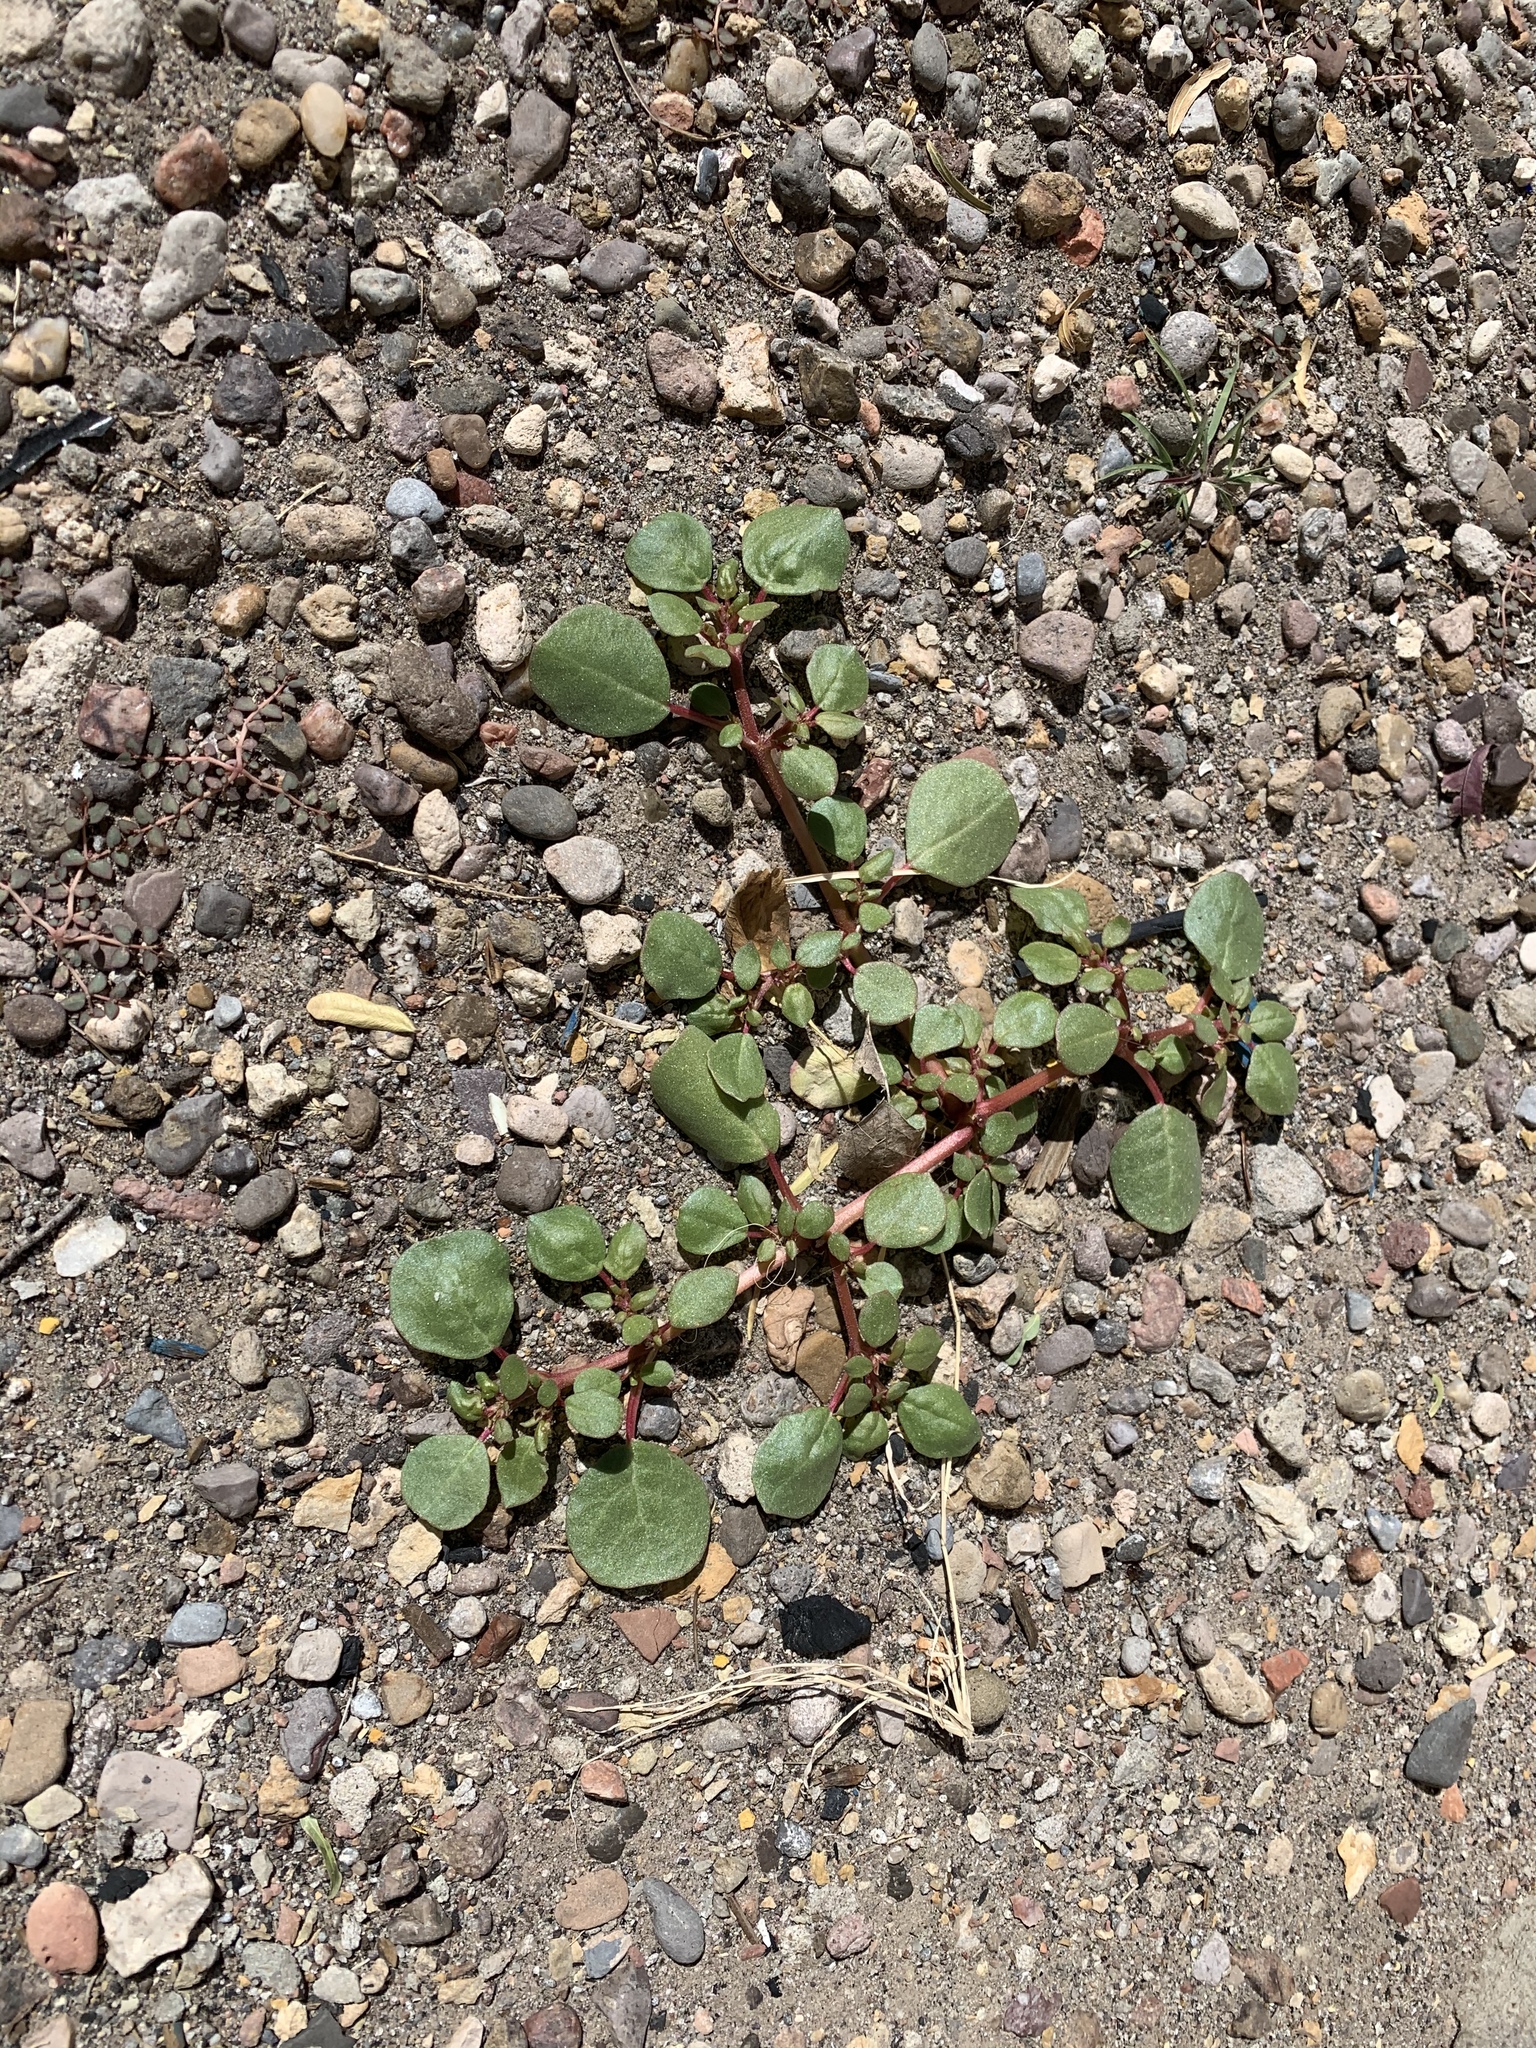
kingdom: Plantae
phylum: Tracheophyta
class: Magnoliopsida
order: Caryophyllales
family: Aizoaceae
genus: Trianthema
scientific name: Trianthema portulacastrum
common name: Desert horsepurslane
